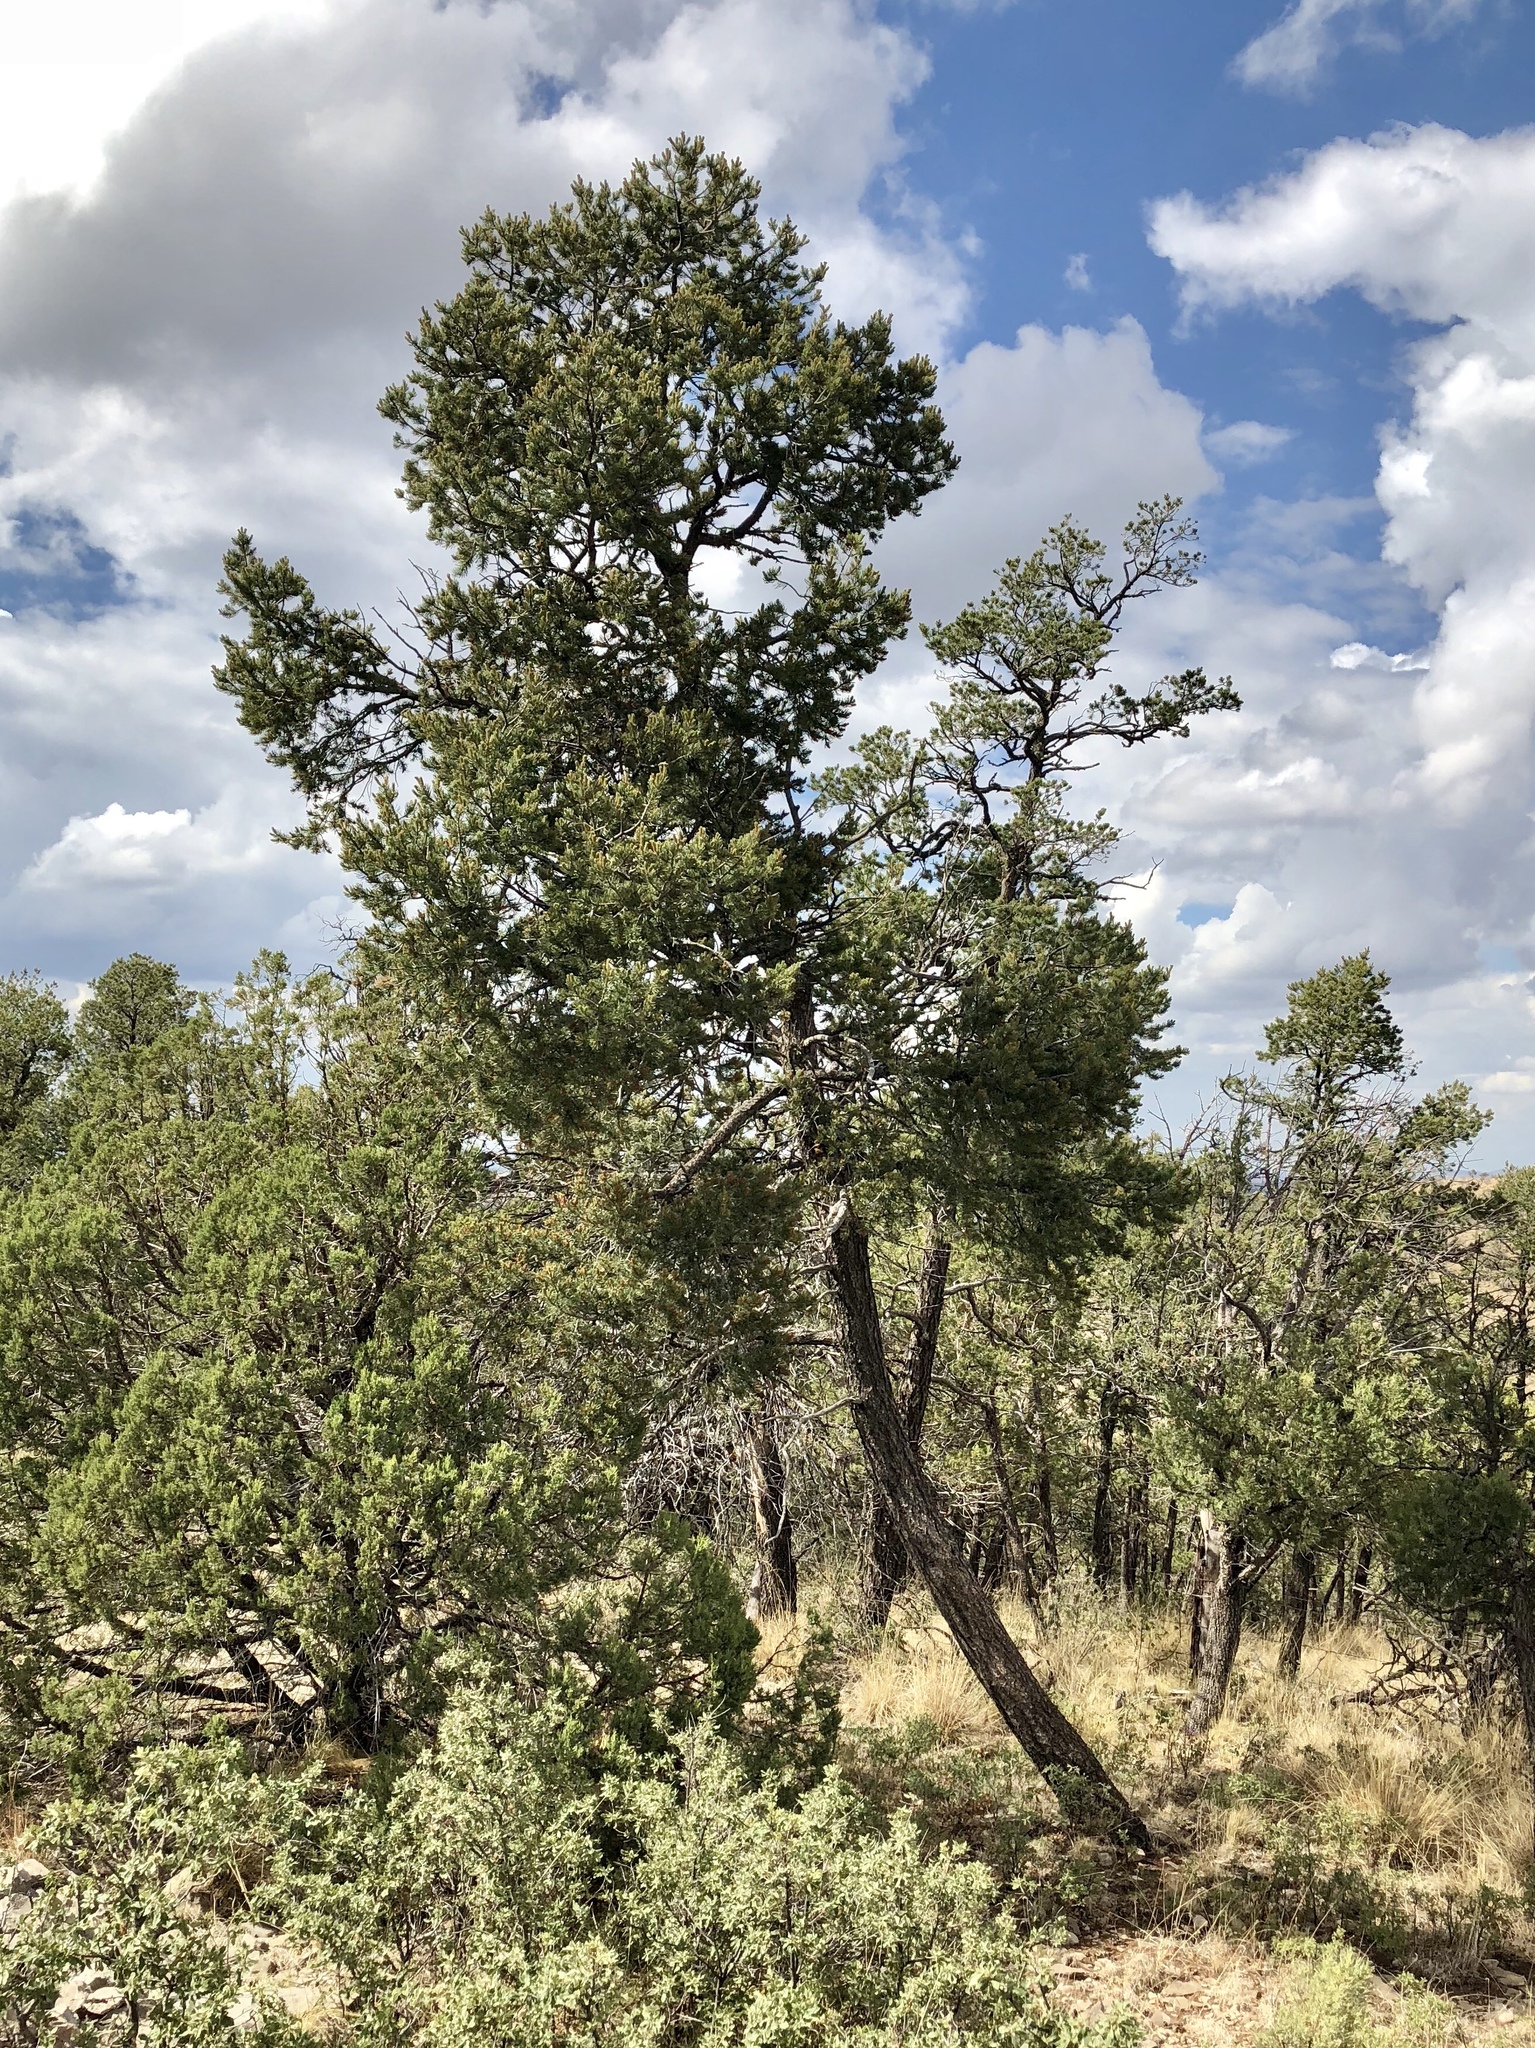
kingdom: Plantae
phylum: Tracheophyta
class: Pinopsida
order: Pinales
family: Pinaceae
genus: Pinus
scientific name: Pinus edulis
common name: Colorado pinyon
